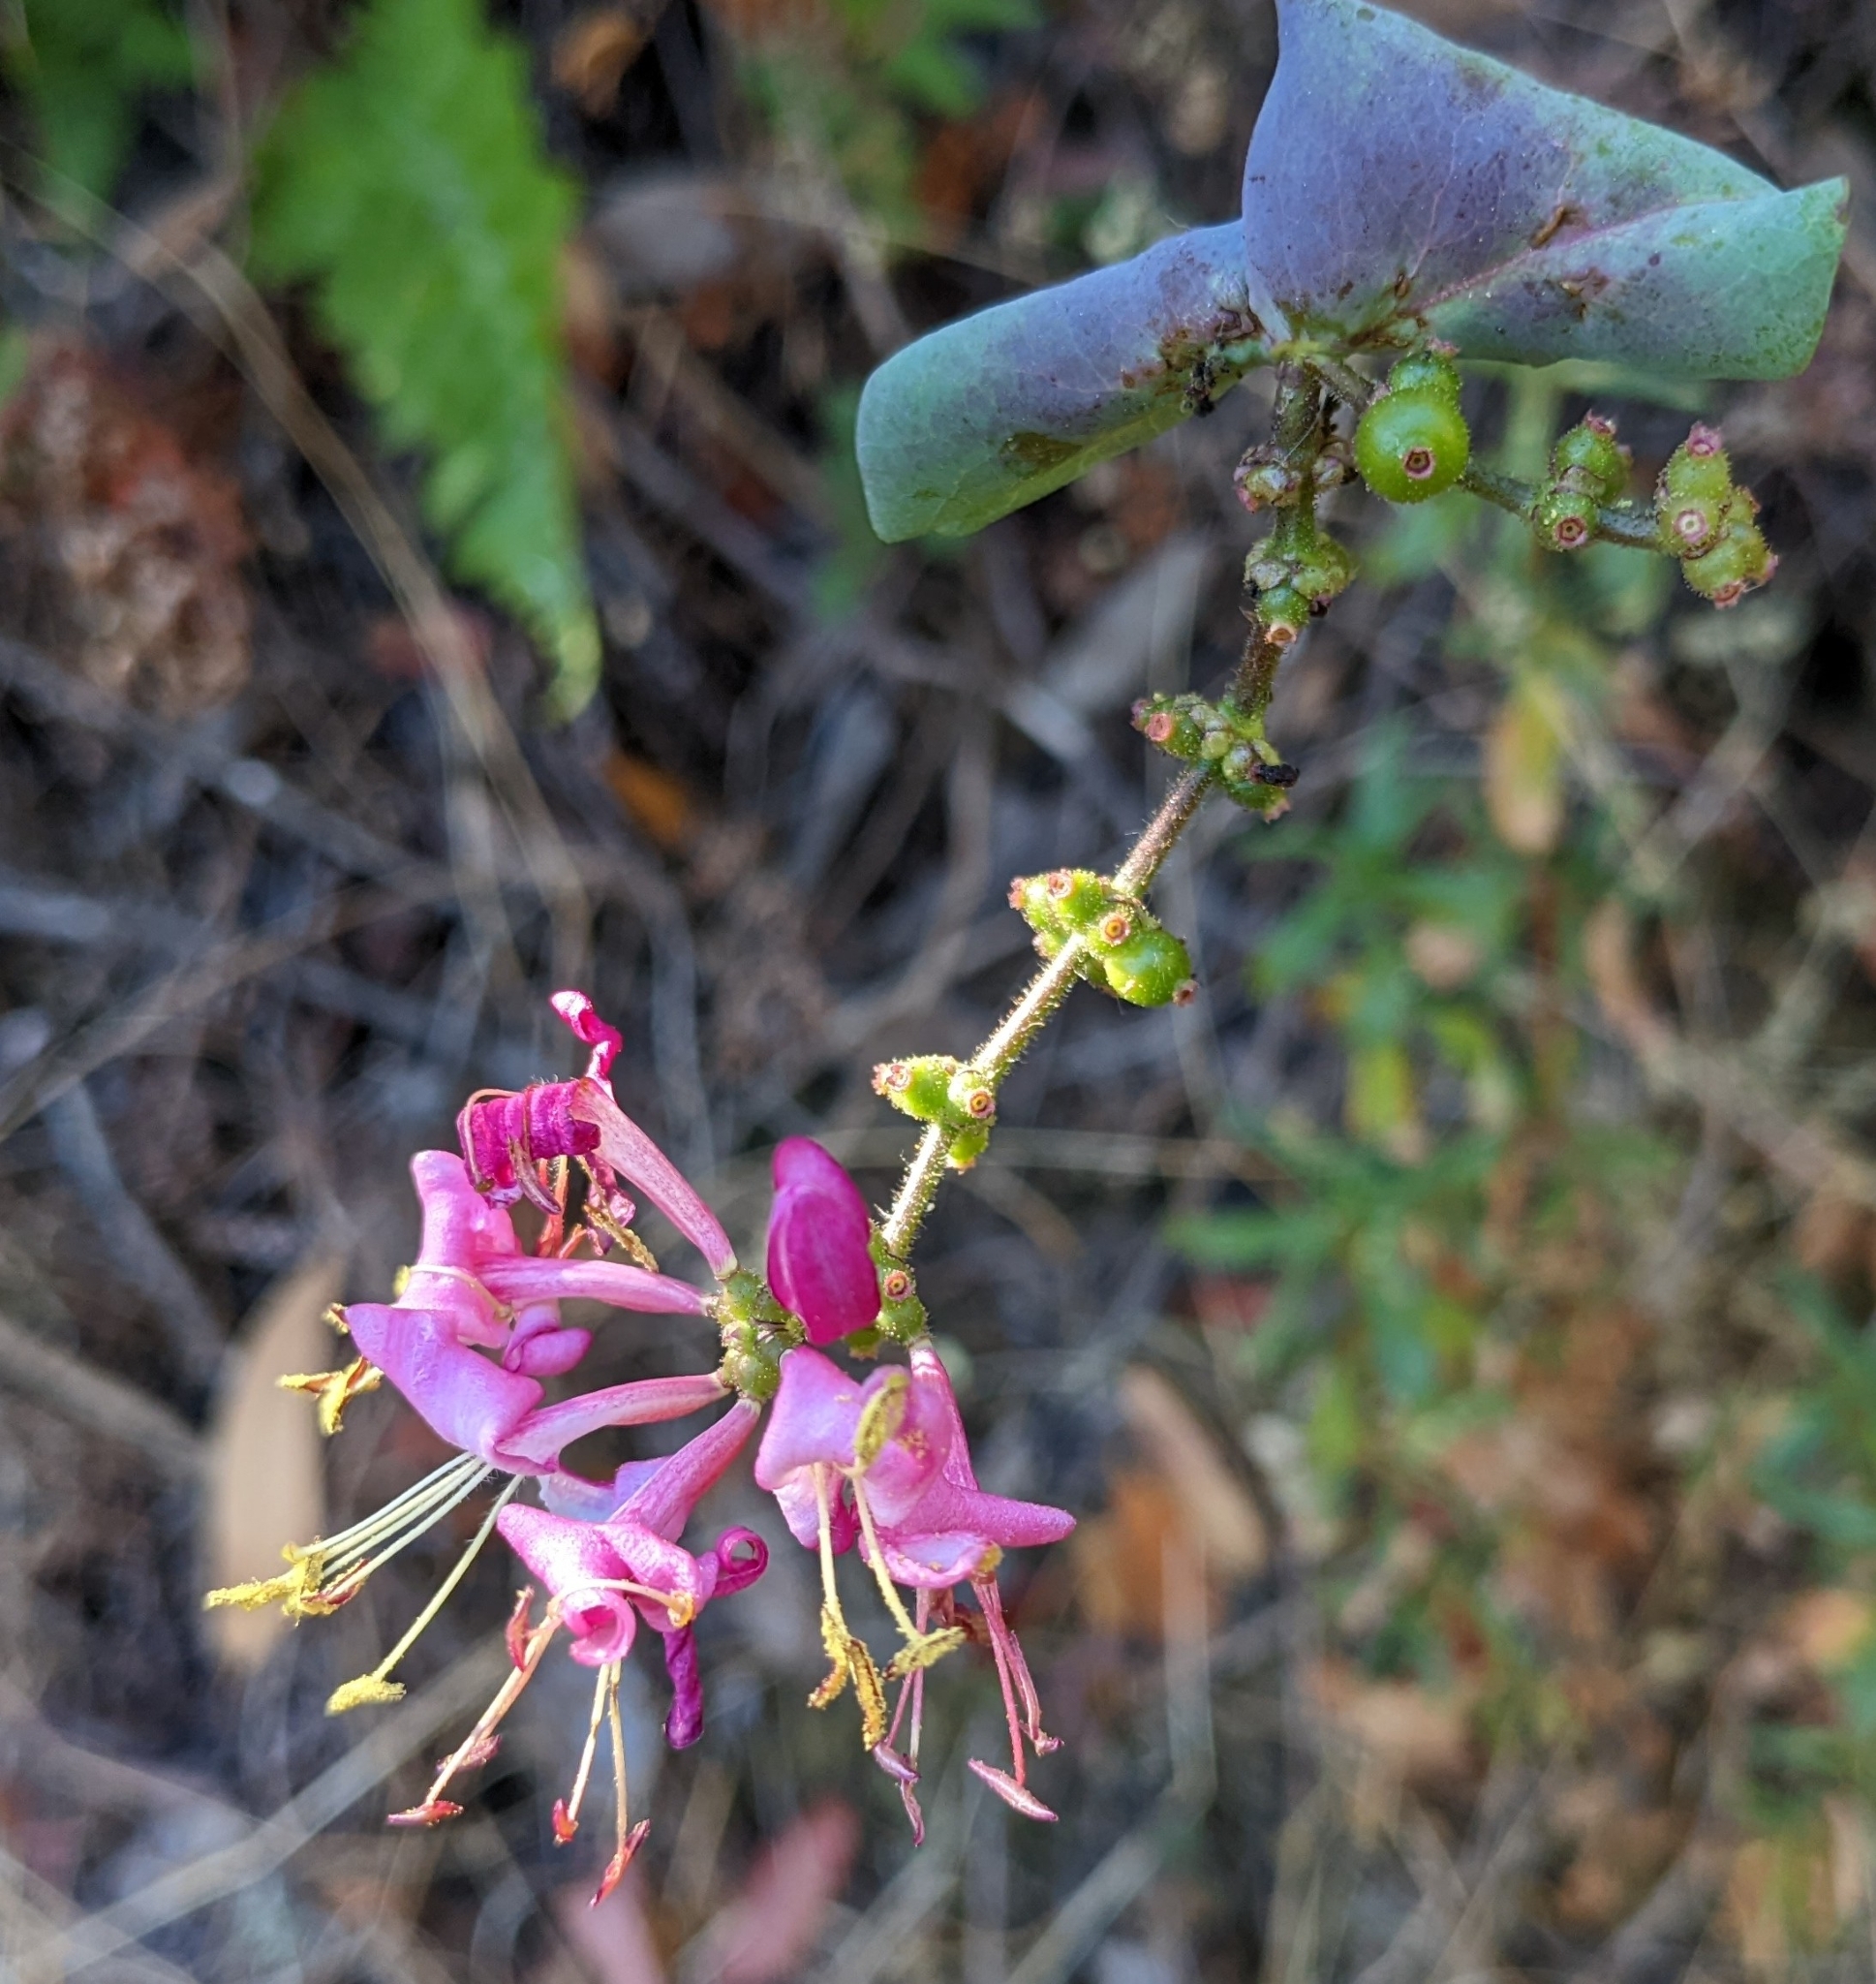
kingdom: Plantae
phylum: Tracheophyta
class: Magnoliopsida
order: Dipsacales
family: Caprifoliaceae
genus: Lonicera
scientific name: Lonicera hispidula
